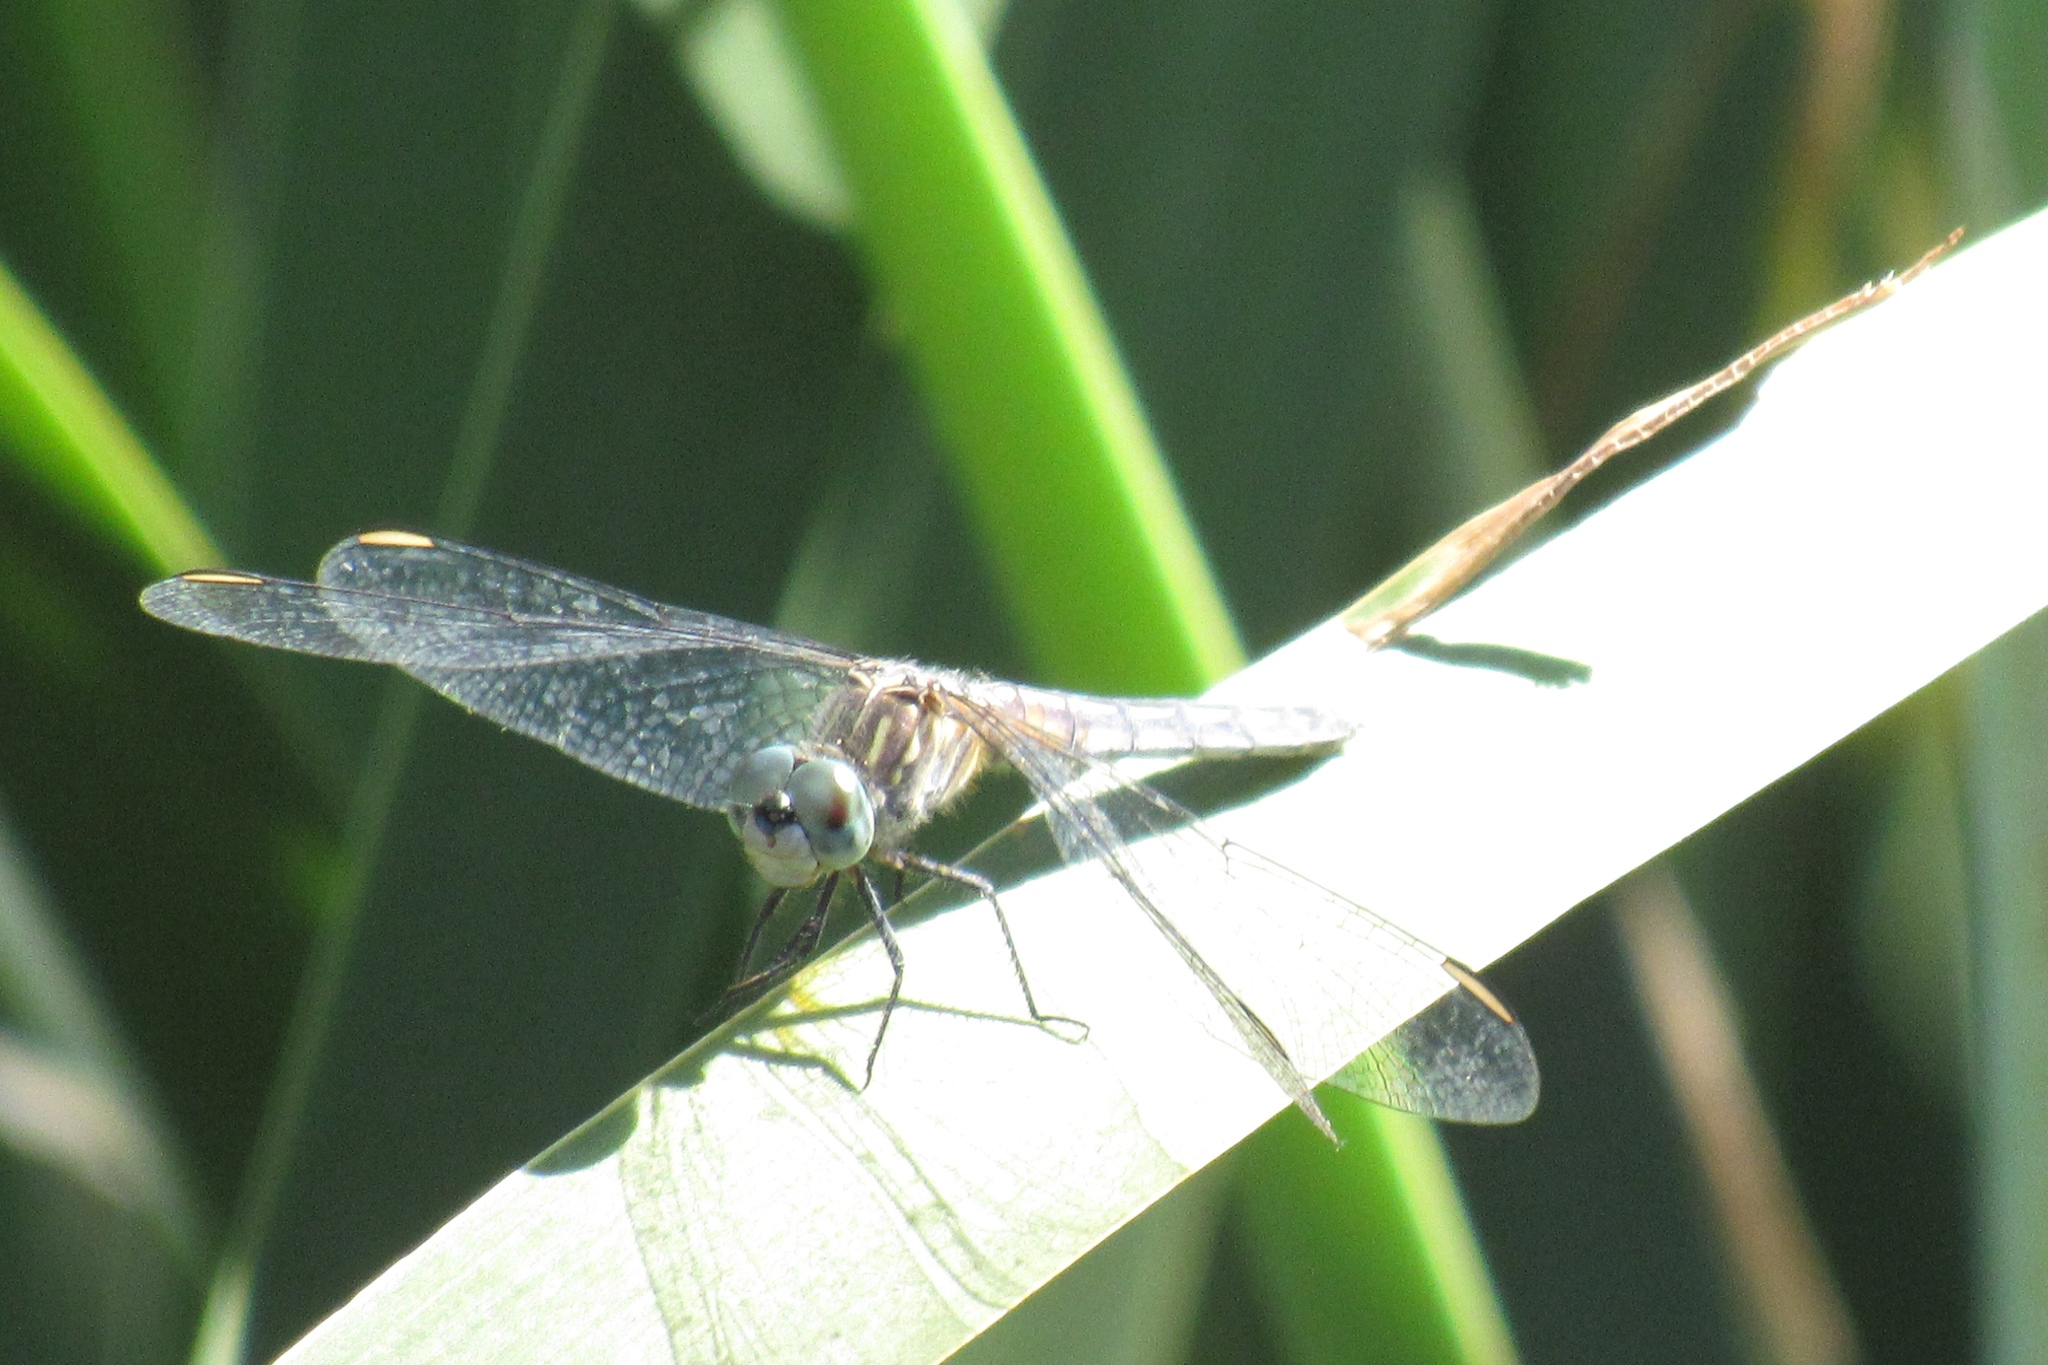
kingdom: Animalia
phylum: Arthropoda
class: Insecta
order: Odonata
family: Libellulidae
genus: Pachydiplax
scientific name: Pachydiplax longipennis
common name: Blue dasher
